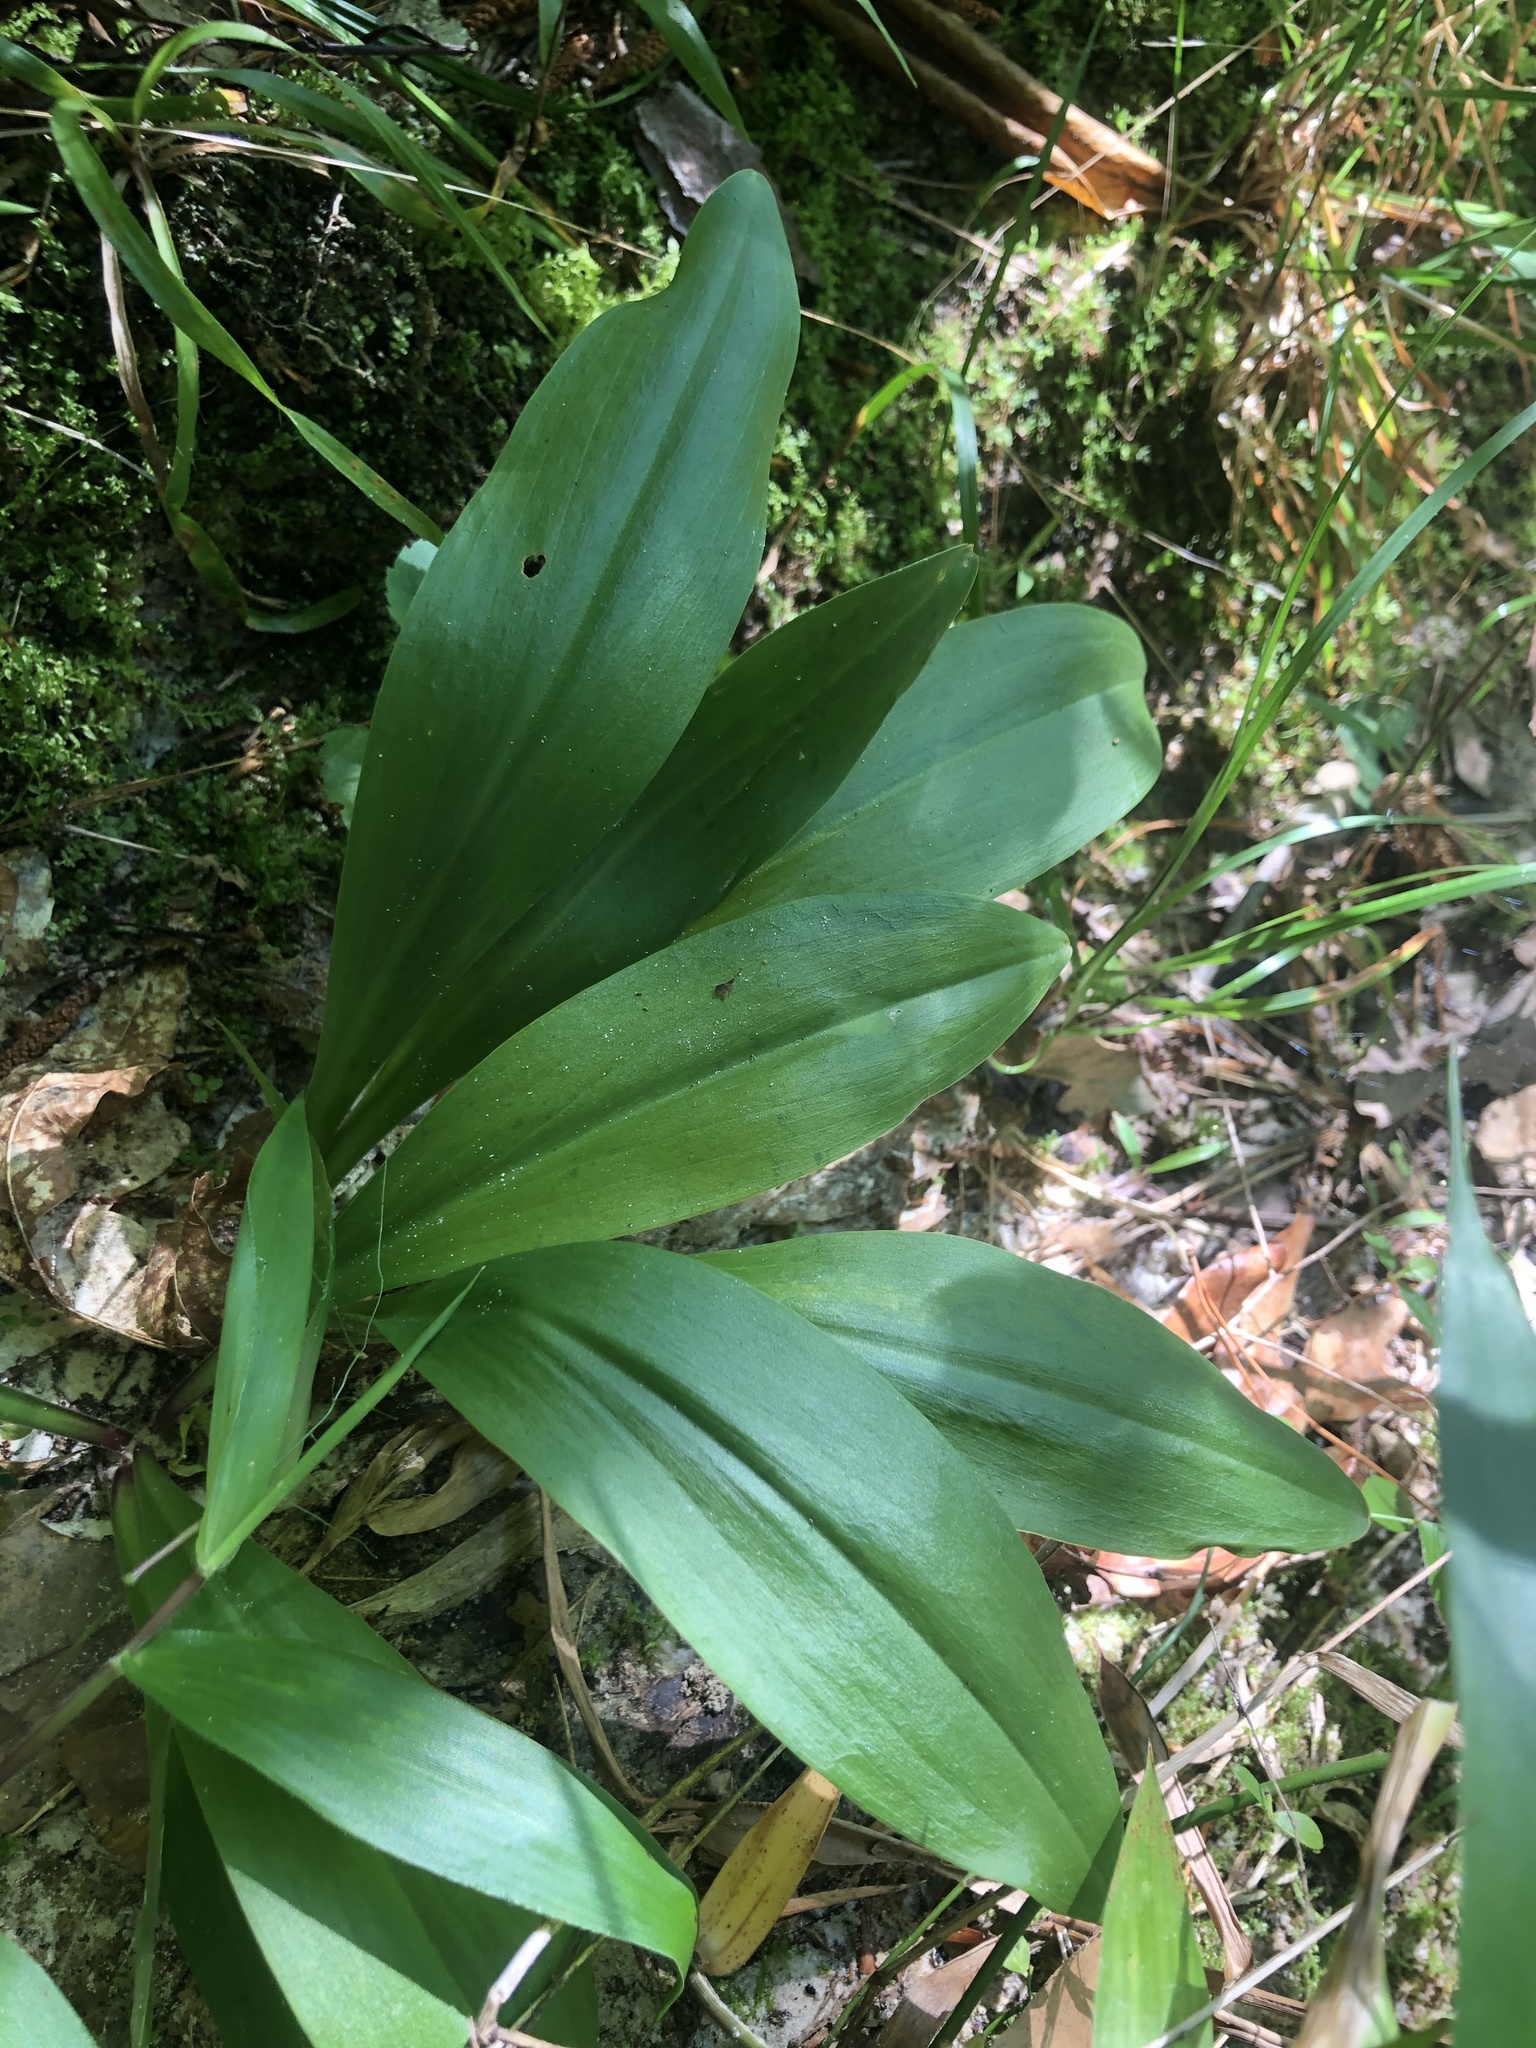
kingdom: Plantae
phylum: Tracheophyta
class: Liliopsida
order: Liliales
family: Melanthiaceae
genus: Chamaelirium
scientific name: Chamaelirium luteum
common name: Fairy-wand
